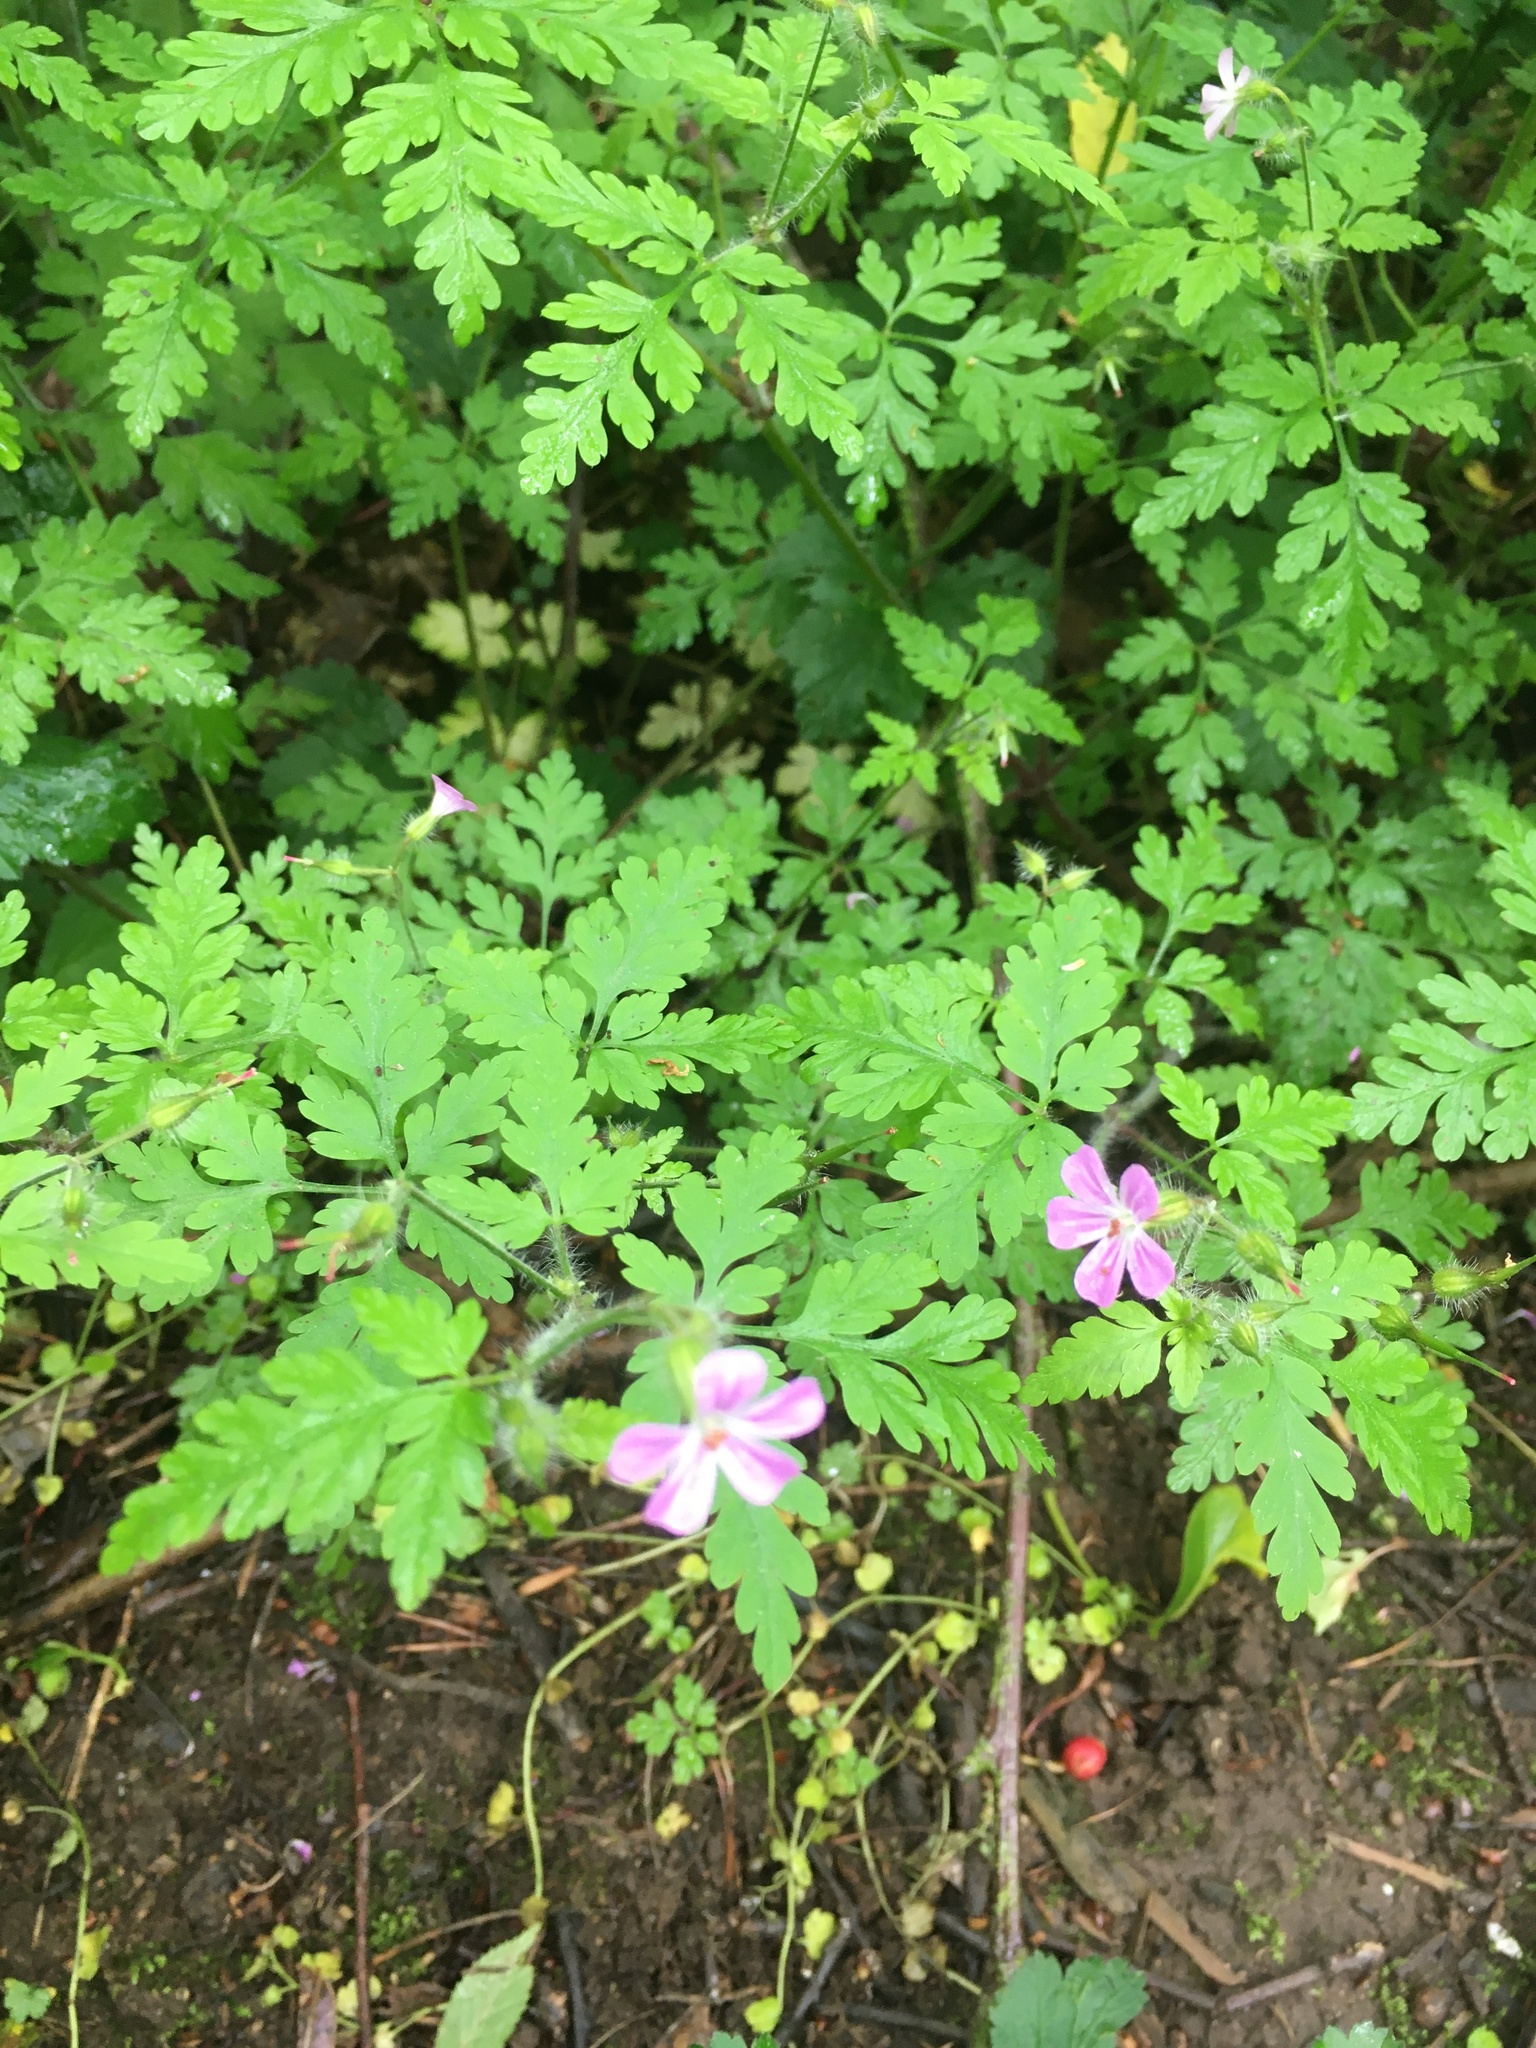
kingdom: Plantae
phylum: Tracheophyta
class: Magnoliopsida
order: Geraniales
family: Geraniaceae
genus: Geranium
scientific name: Geranium robertianum
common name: Herb-robert
